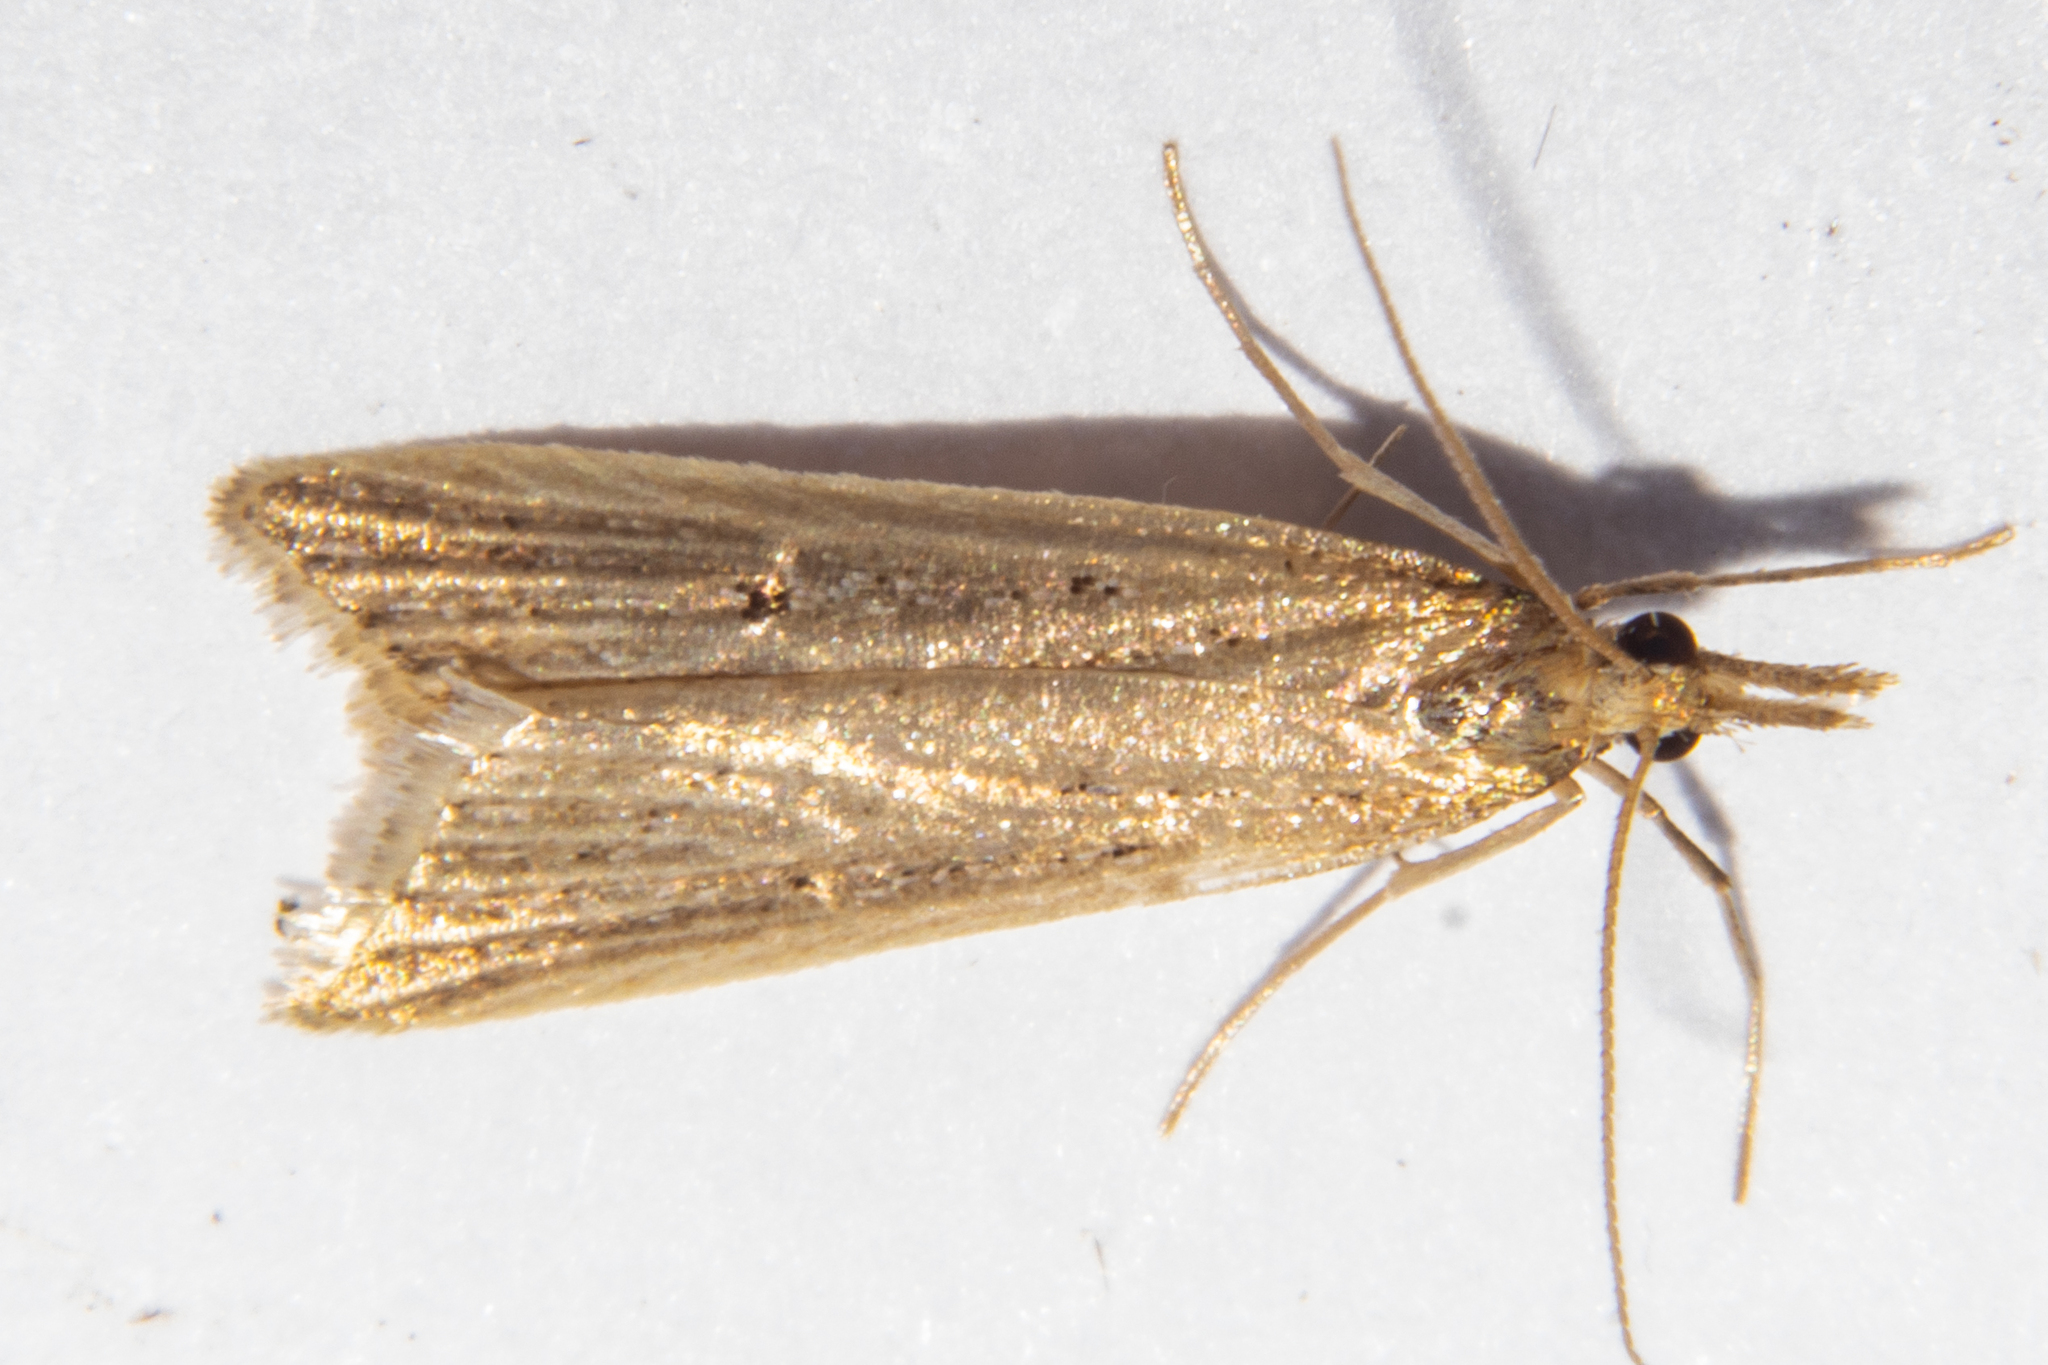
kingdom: Animalia
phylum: Arthropoda
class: Insecta
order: Lepidoptera
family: Crambidae
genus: Antiscopa
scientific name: Antiscopa elaphra
